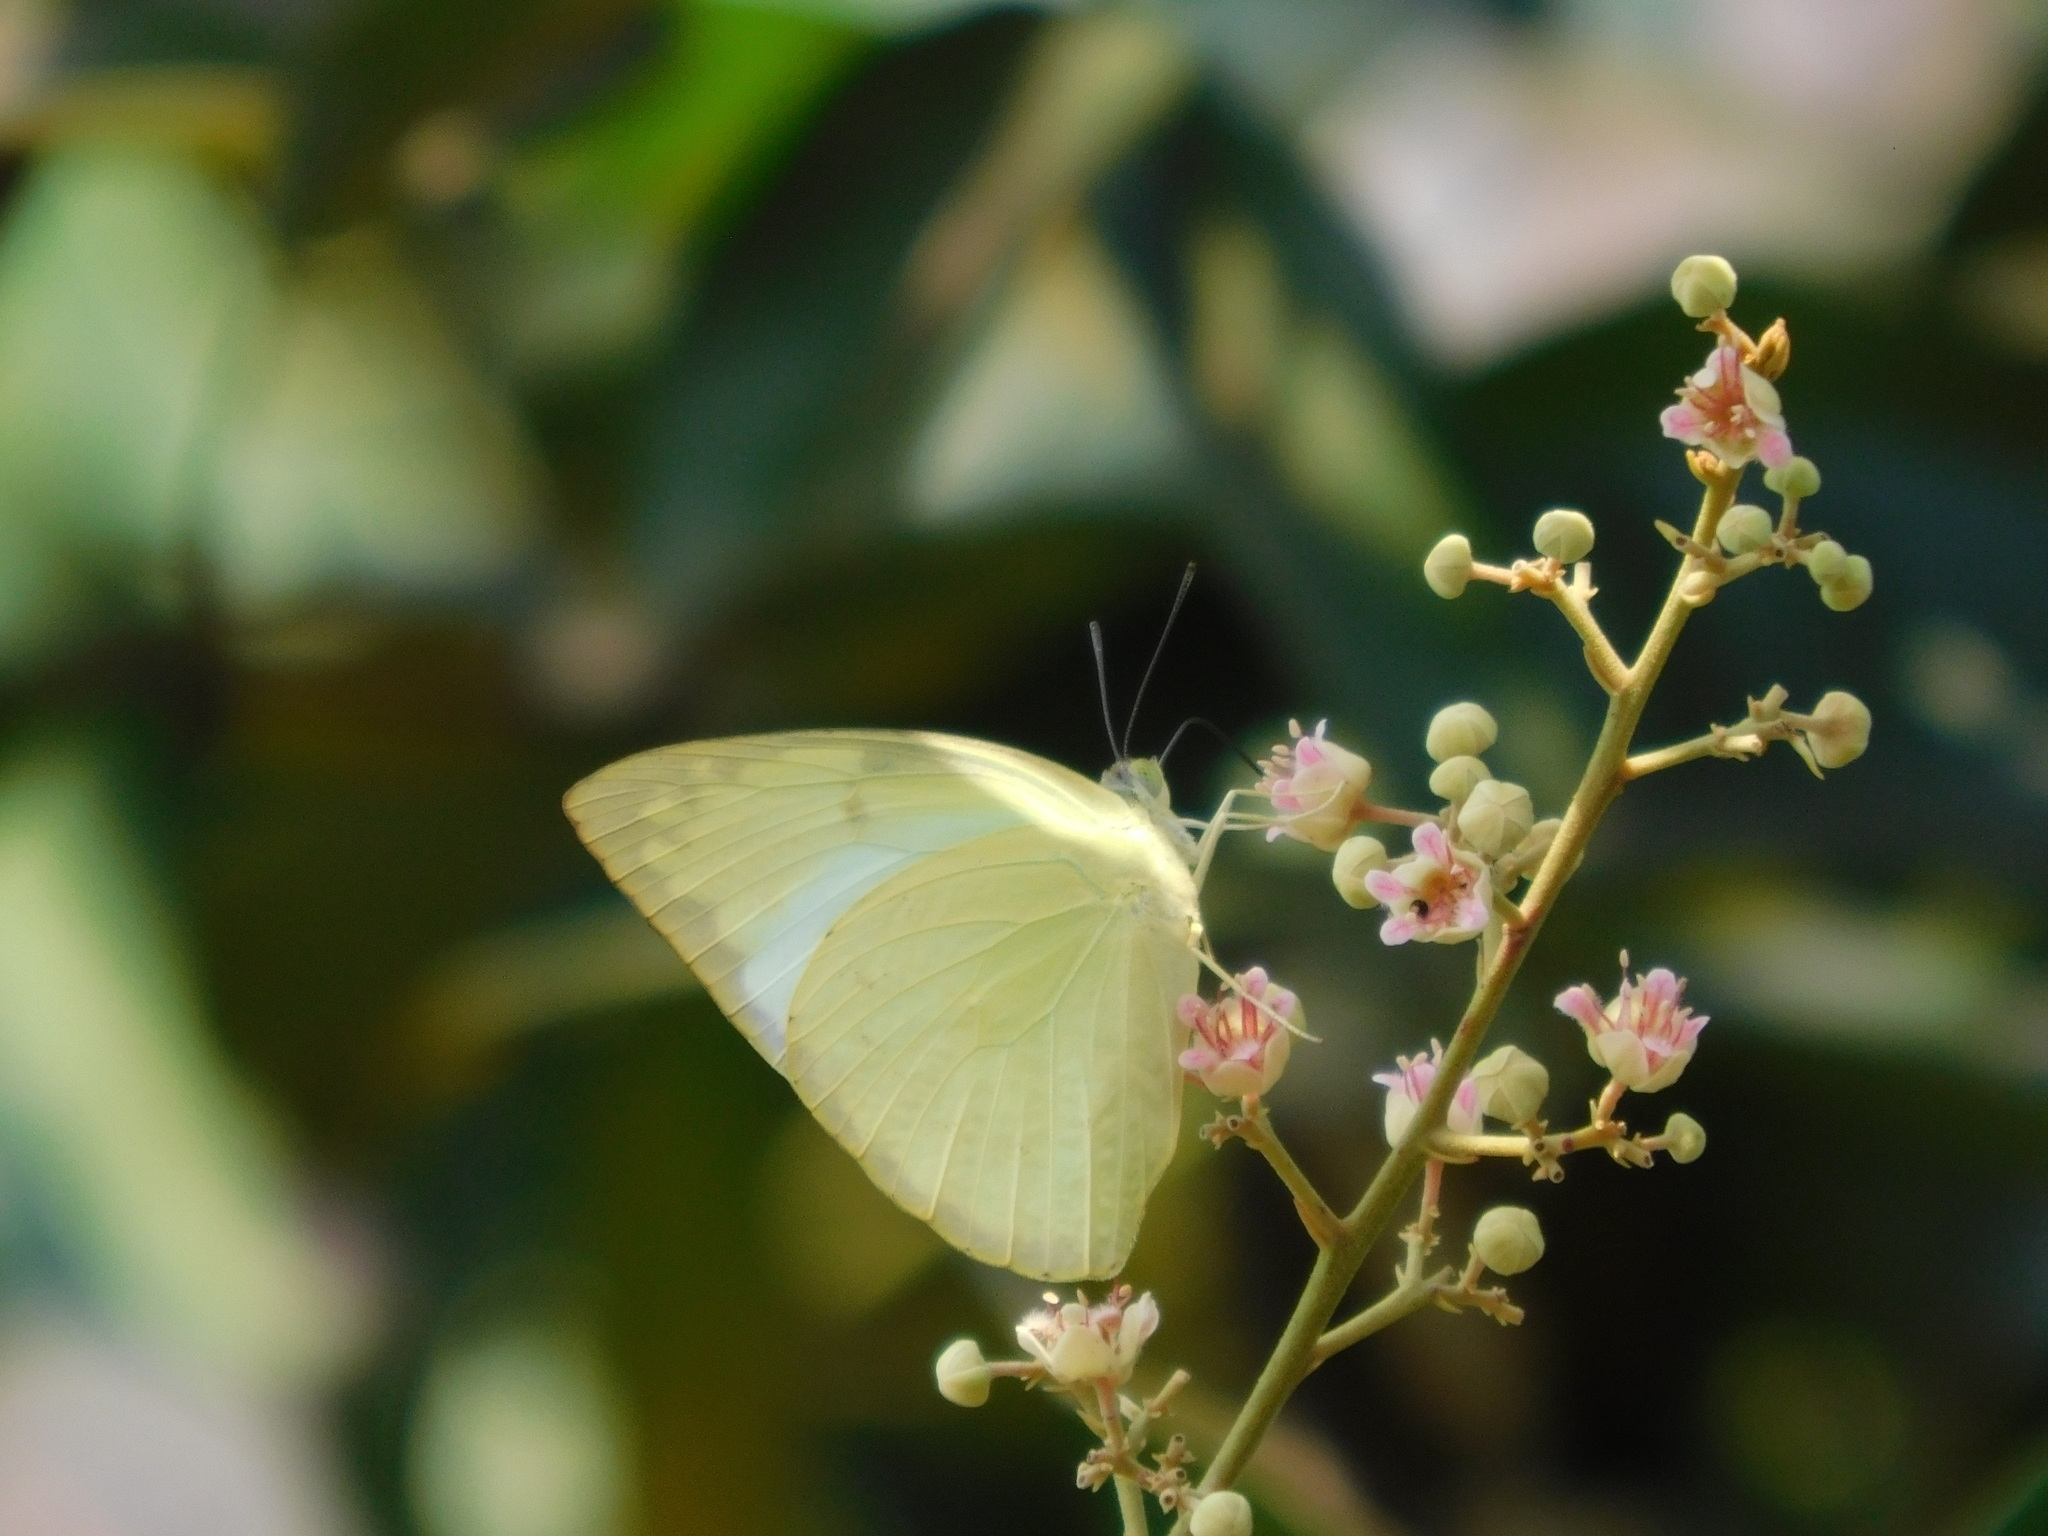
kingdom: Animalia
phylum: Arthropoda
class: Insecta
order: Lepidoptera
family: Pieridae
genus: Catopsilia
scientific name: Catopsilia pomona
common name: Common emigrant
